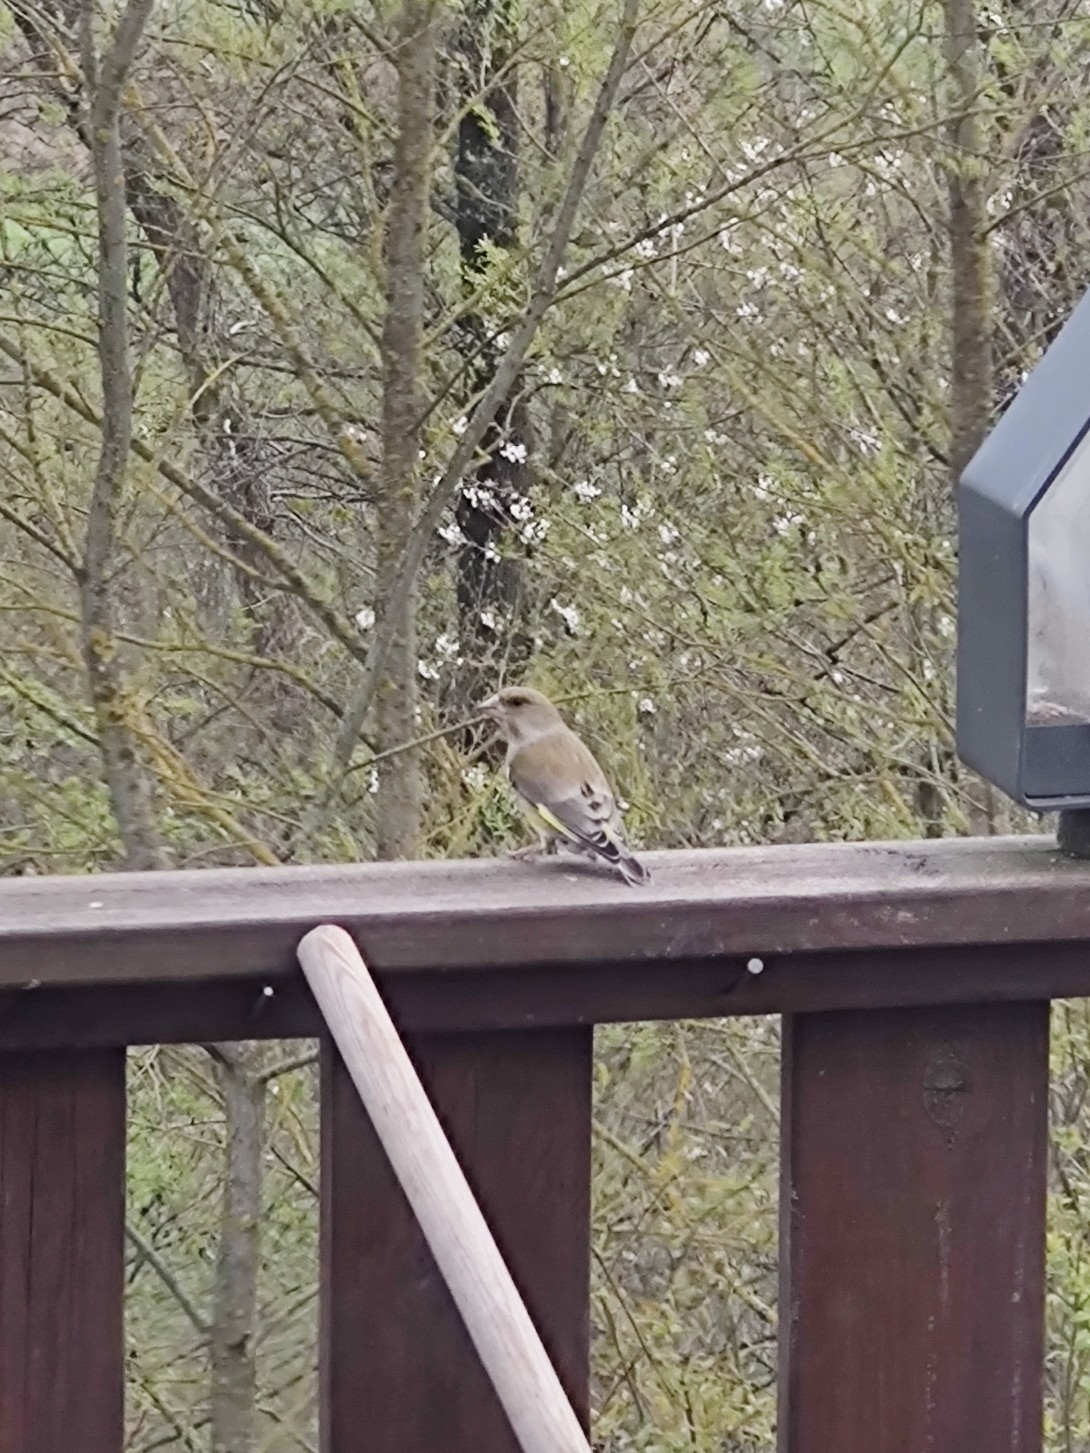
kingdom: Plantae
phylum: Tracheophyta
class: Liliopsida
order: Poales
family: Poaceae
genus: Chloris
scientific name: Chloris chloris
